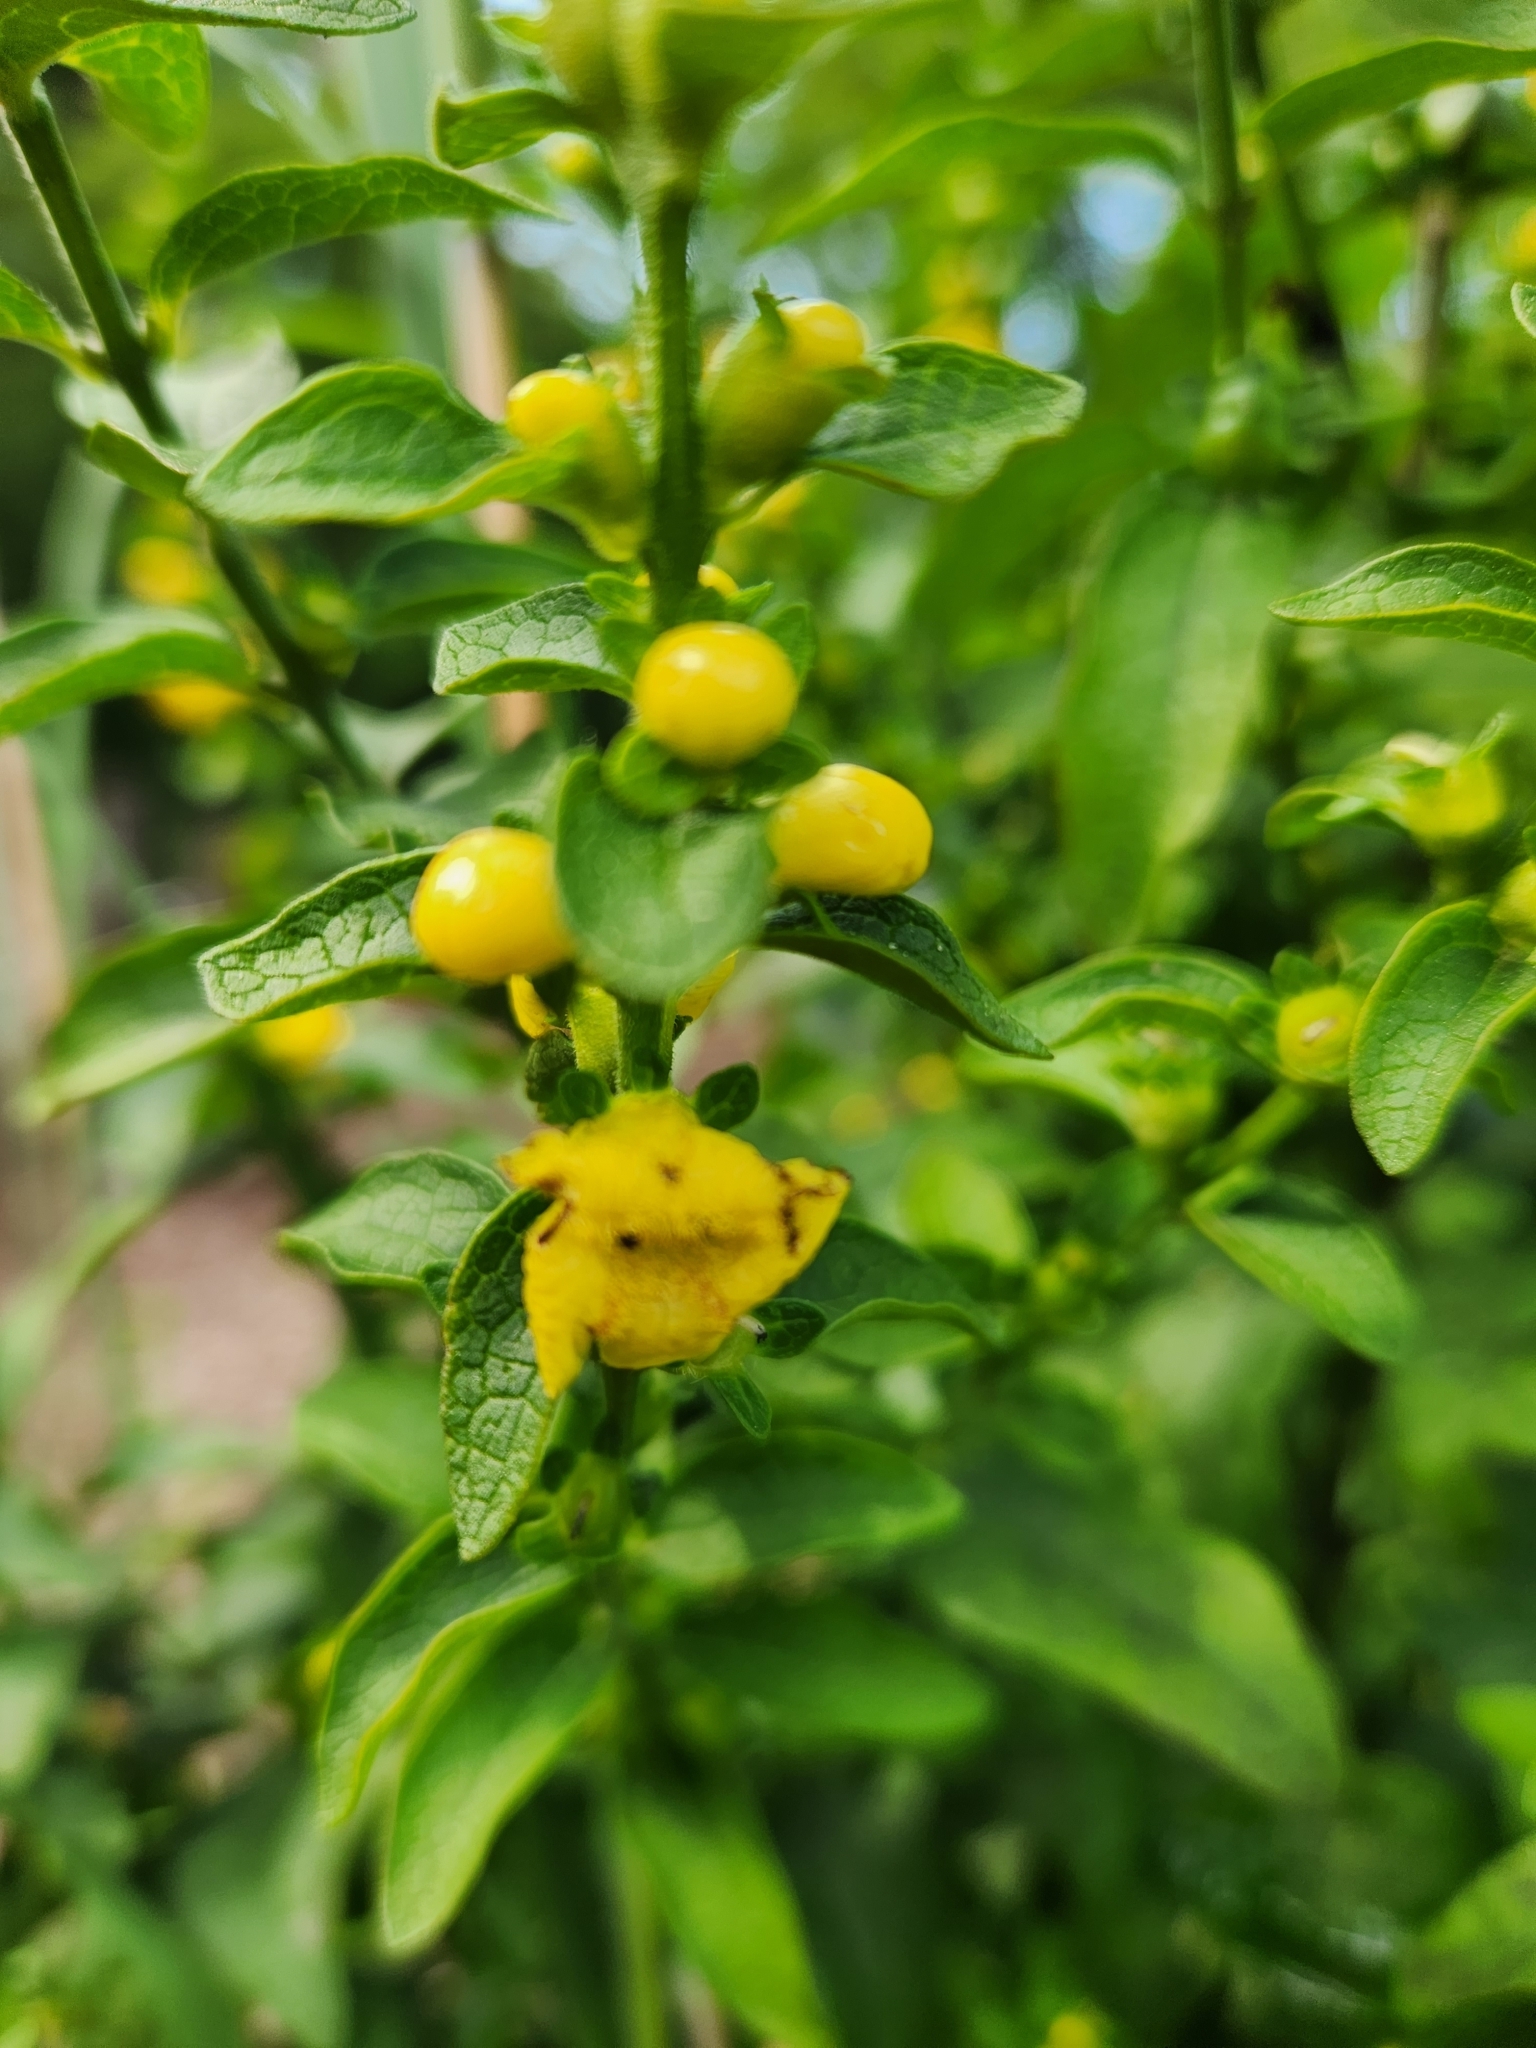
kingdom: Plantae
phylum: Tracheophyta
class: Magnoliopsida
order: Lamiales
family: Orobanchaceae
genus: Dasistoma
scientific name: Dasistoma macrophyllum
